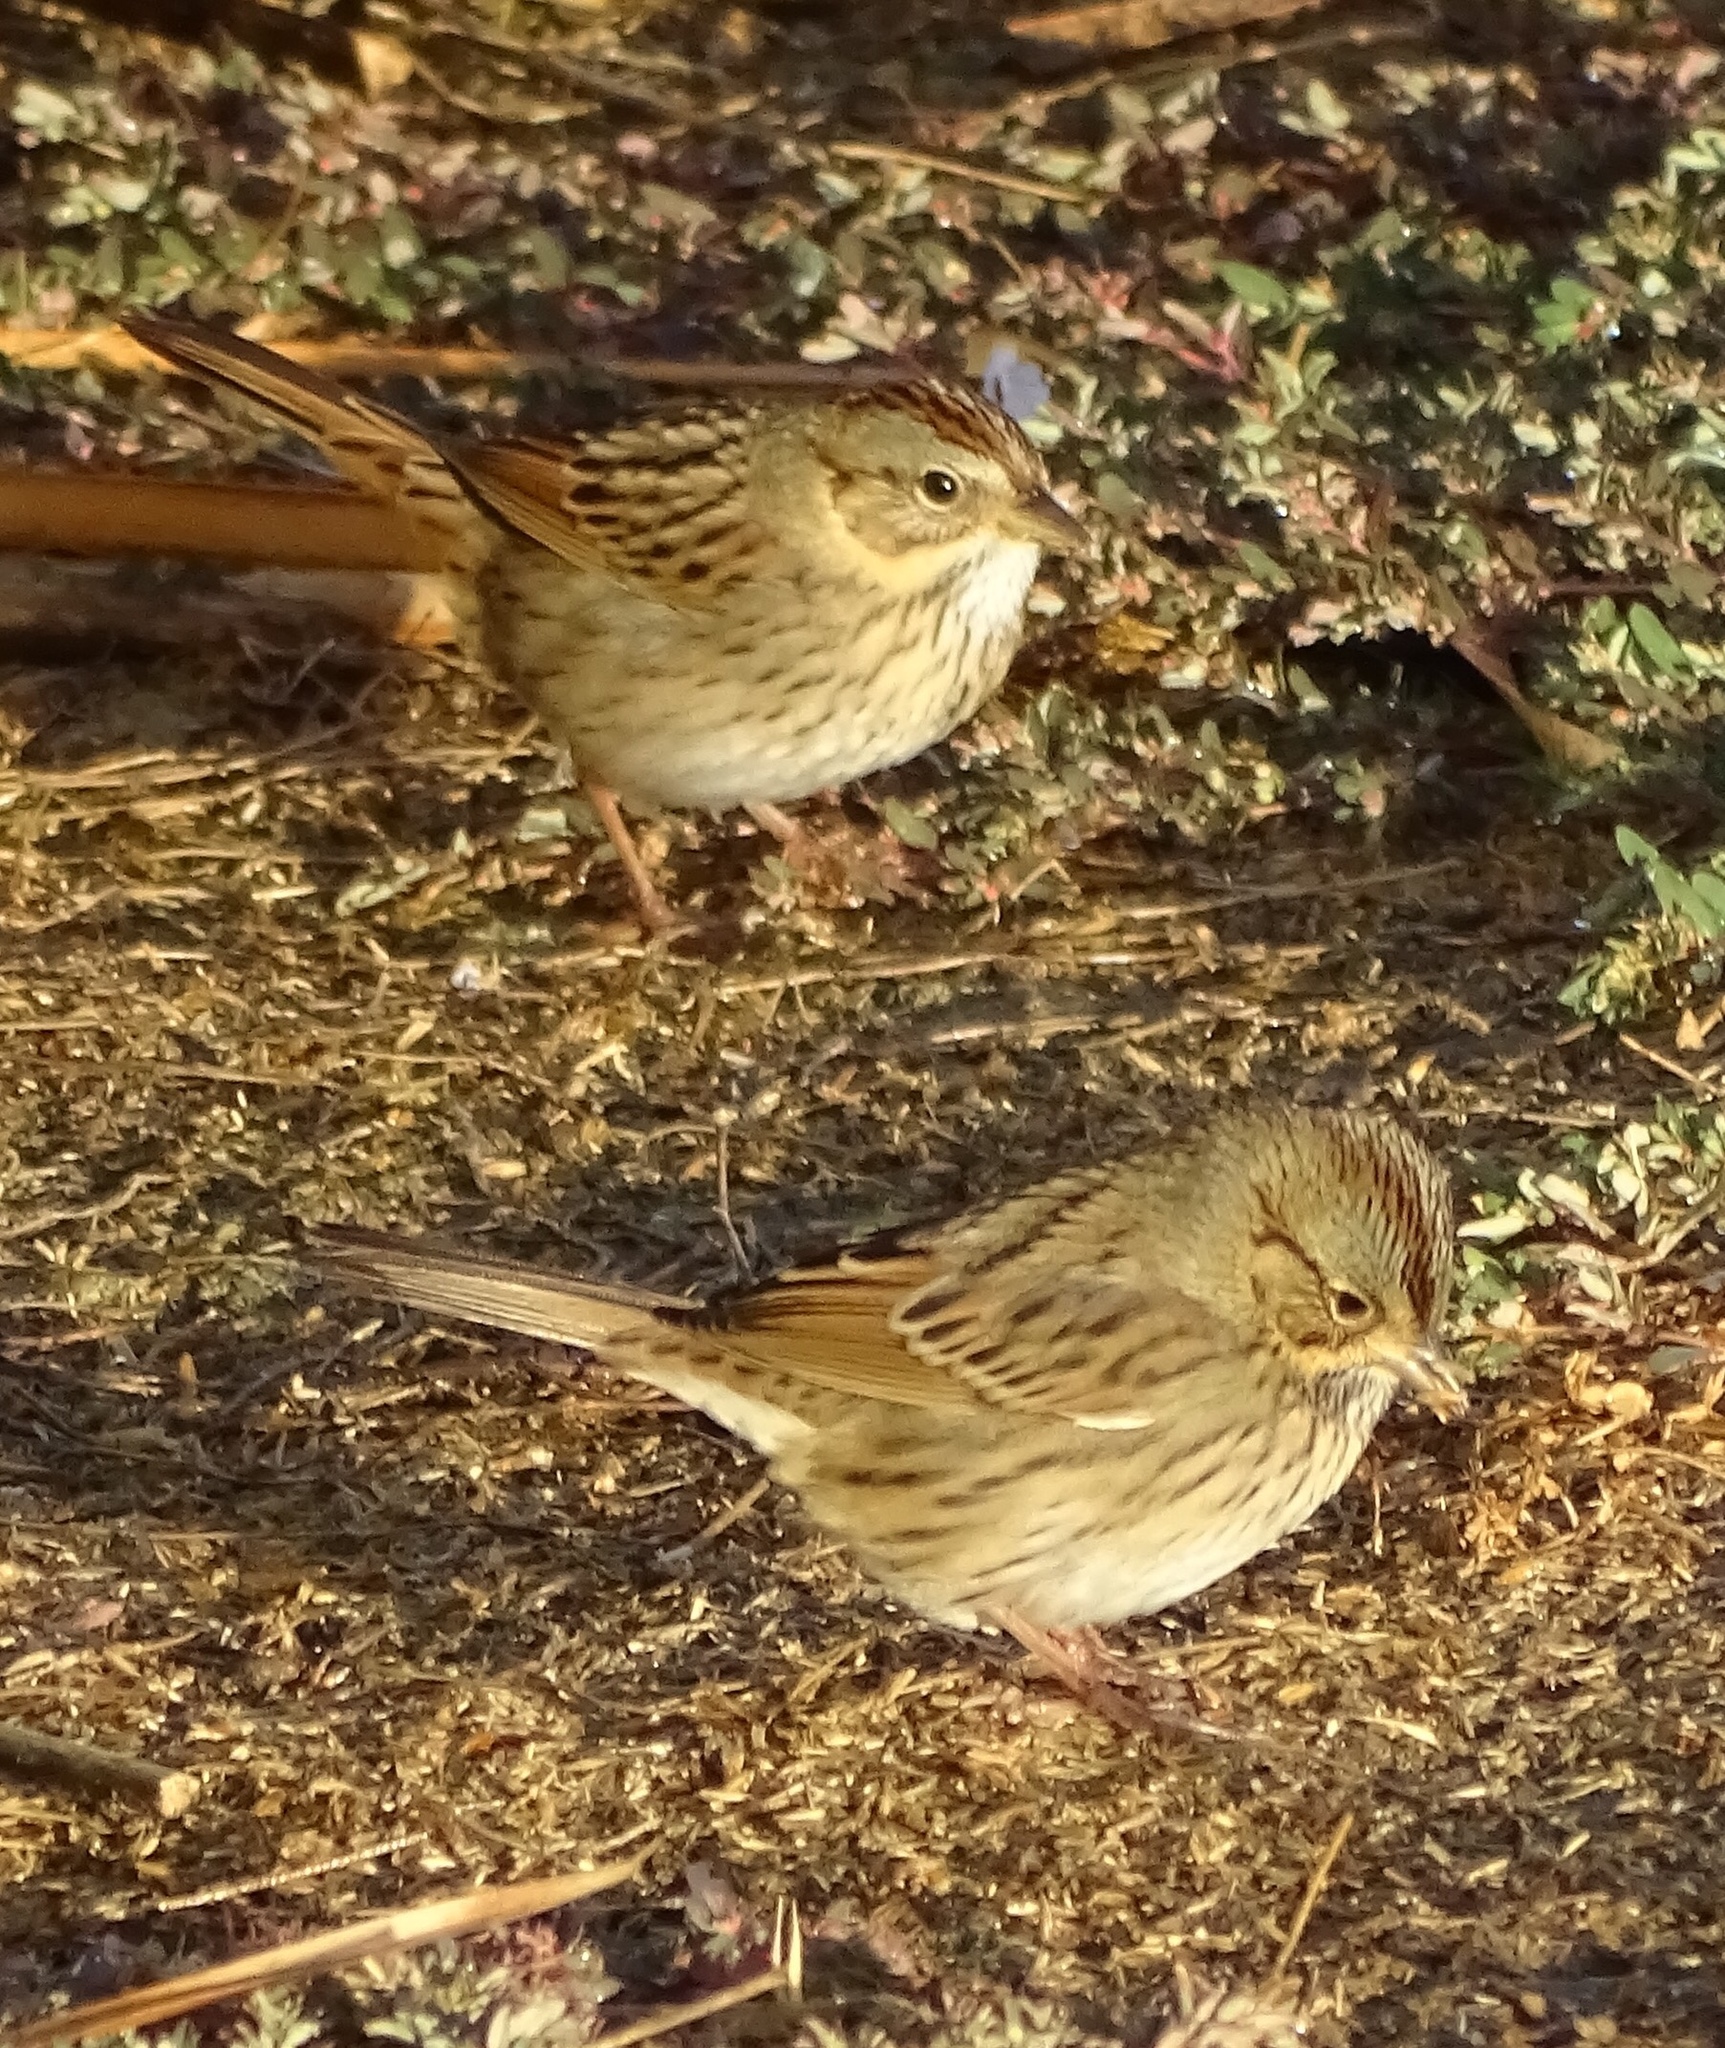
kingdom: Animalia
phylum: Chordata
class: Aves
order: Passeriformes
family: Passerellidae
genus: Melospiza
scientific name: Melospiza lincolnii
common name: Lincoln's sparrow
